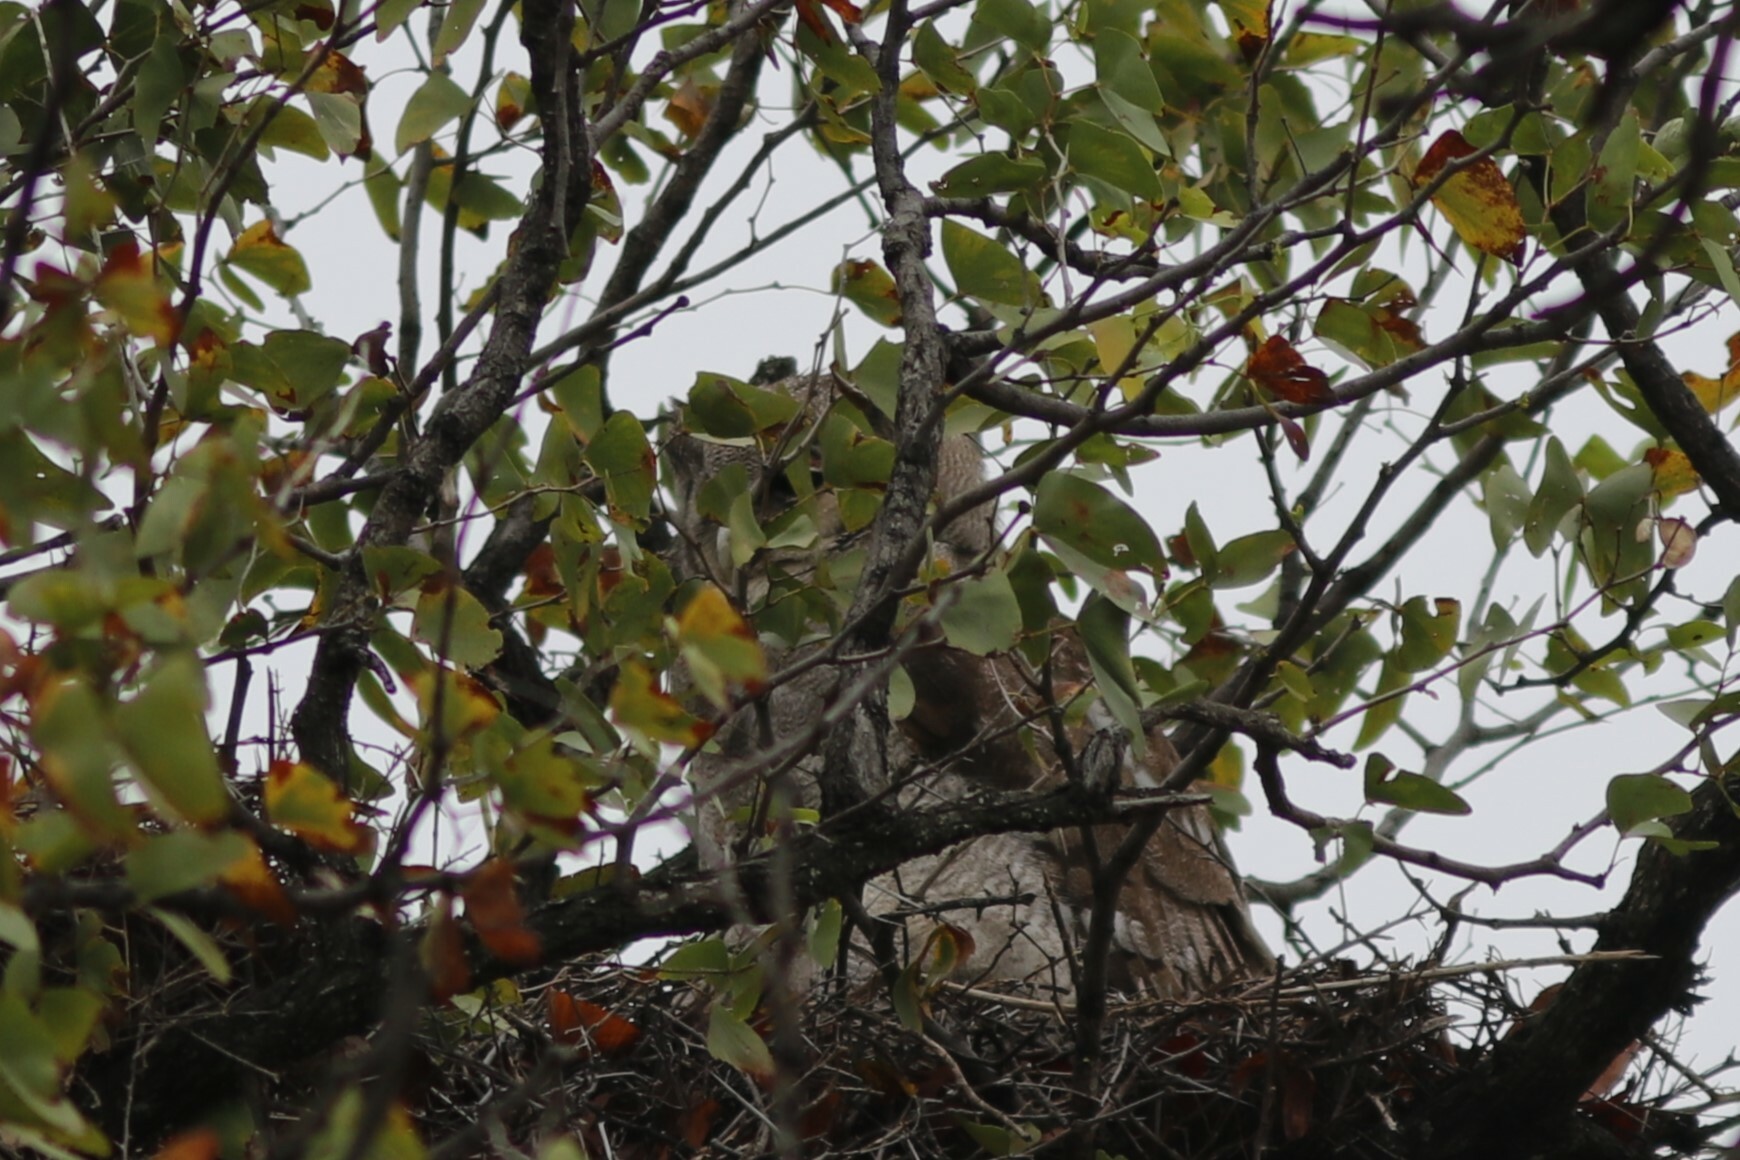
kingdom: Animalia
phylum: Chordata
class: Aves
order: Strigiformes
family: Strigidae
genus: Bubo
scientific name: Bubo lacteus
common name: Verreaux's eagle-owl
